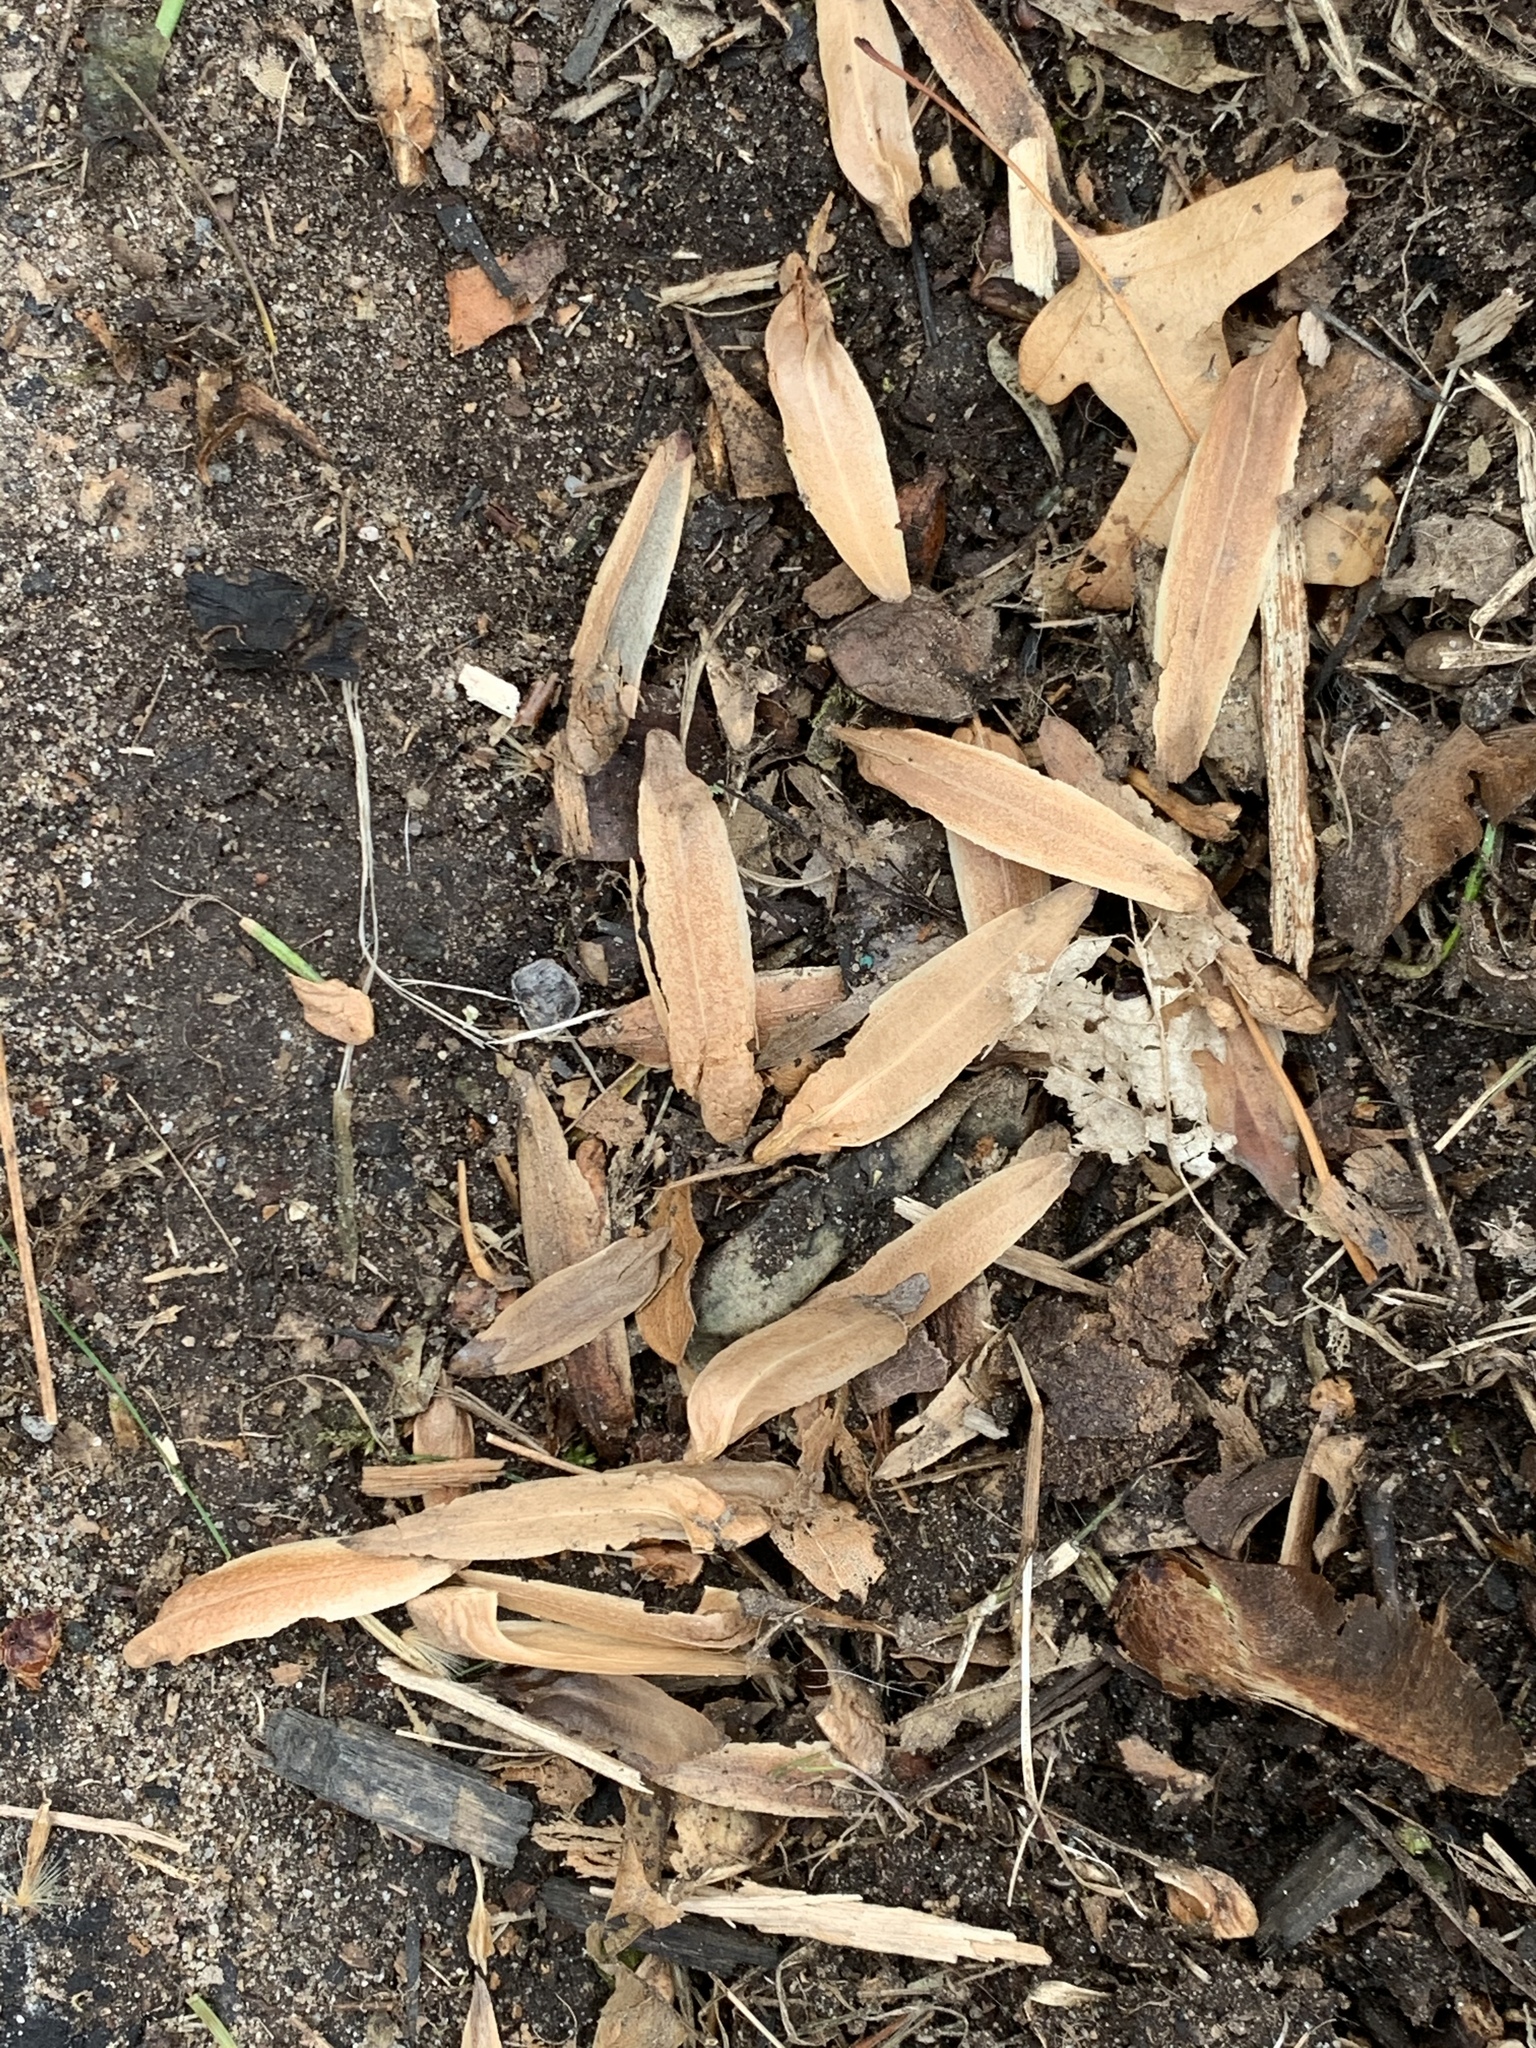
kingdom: Plantae
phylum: Tracheophyta
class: Magnoliopsida
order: Magnoliales
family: Magnoliaceae
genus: Liriodendron
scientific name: Liriodendron tulipifera
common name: Tulip tree
